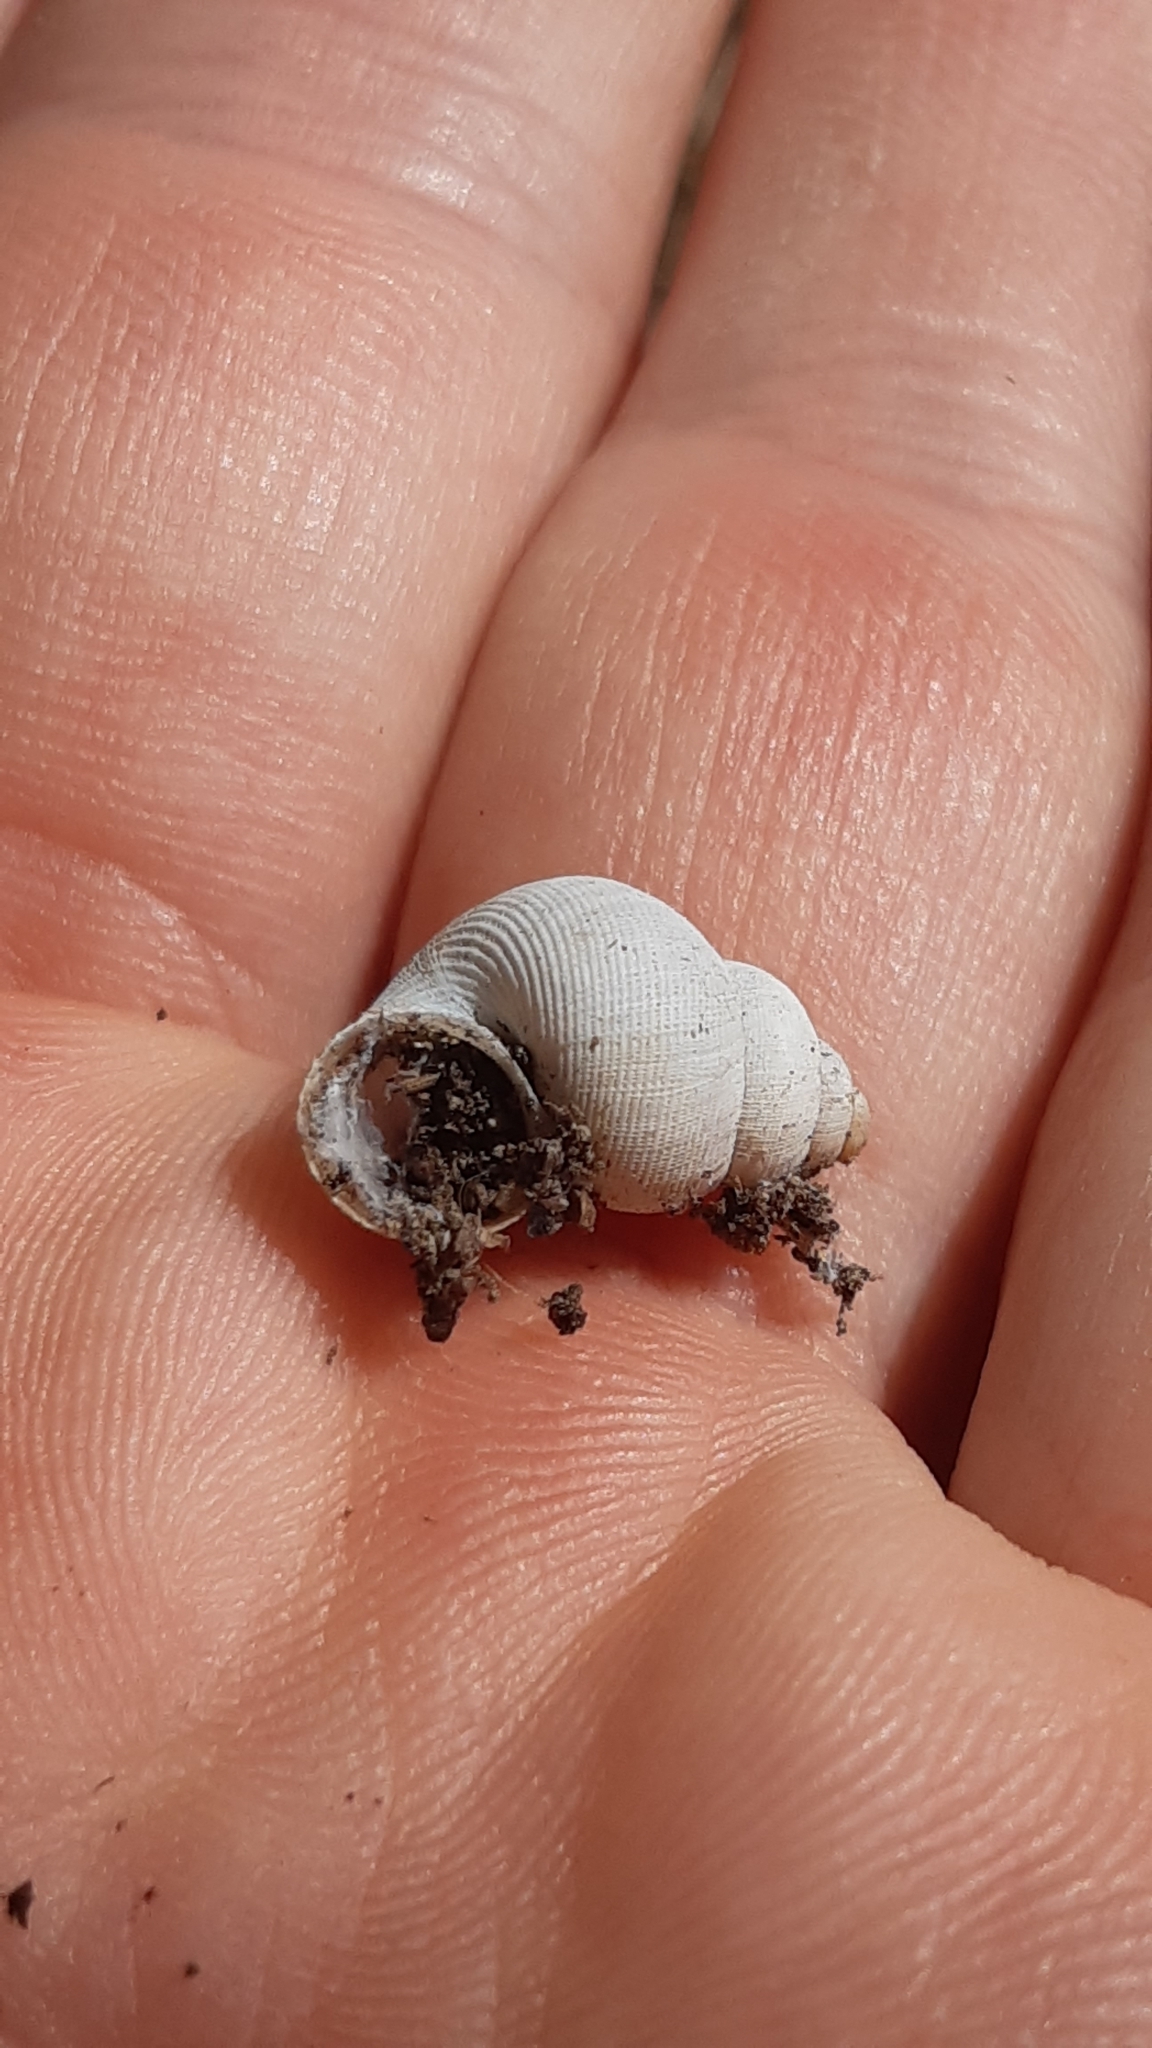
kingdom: Animalia
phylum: Mollusca
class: Gastropoda
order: Littorinimorpha
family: Pomatiidae
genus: Pomatias
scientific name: Pomatias elegans
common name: Red-mouthed snail
